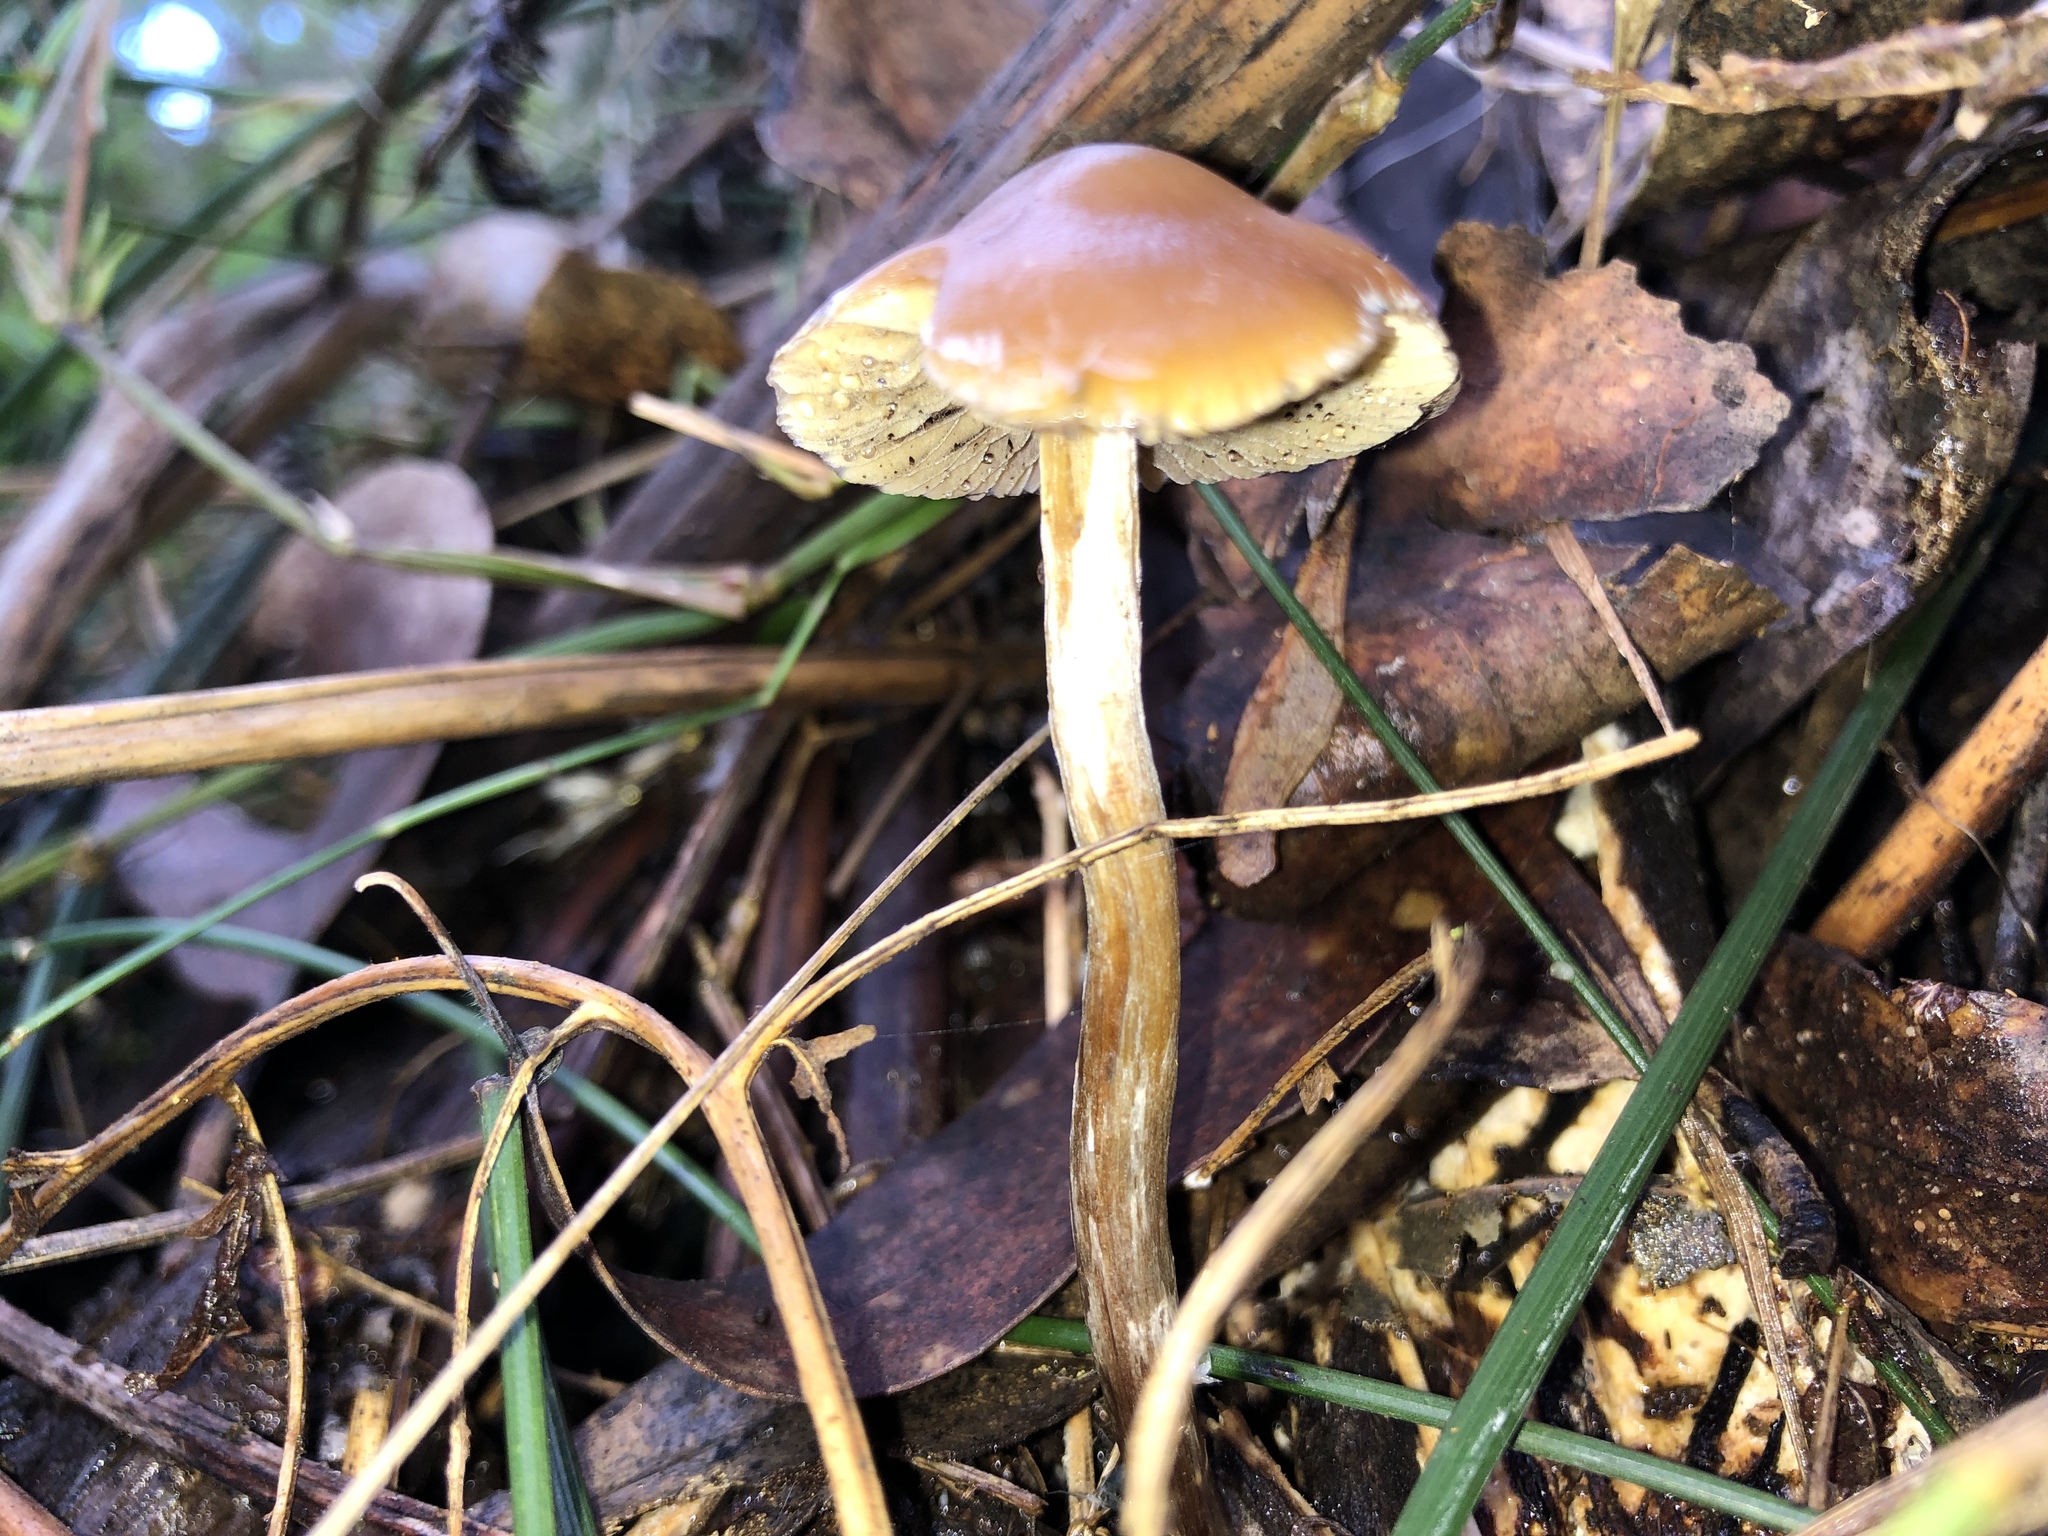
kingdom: Fungi
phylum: Basidiomycota
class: Agaricomycetes
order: Agaricales
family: Hymenogastraceae
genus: Psilocybe
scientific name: Psilocybe subaeruginosa
